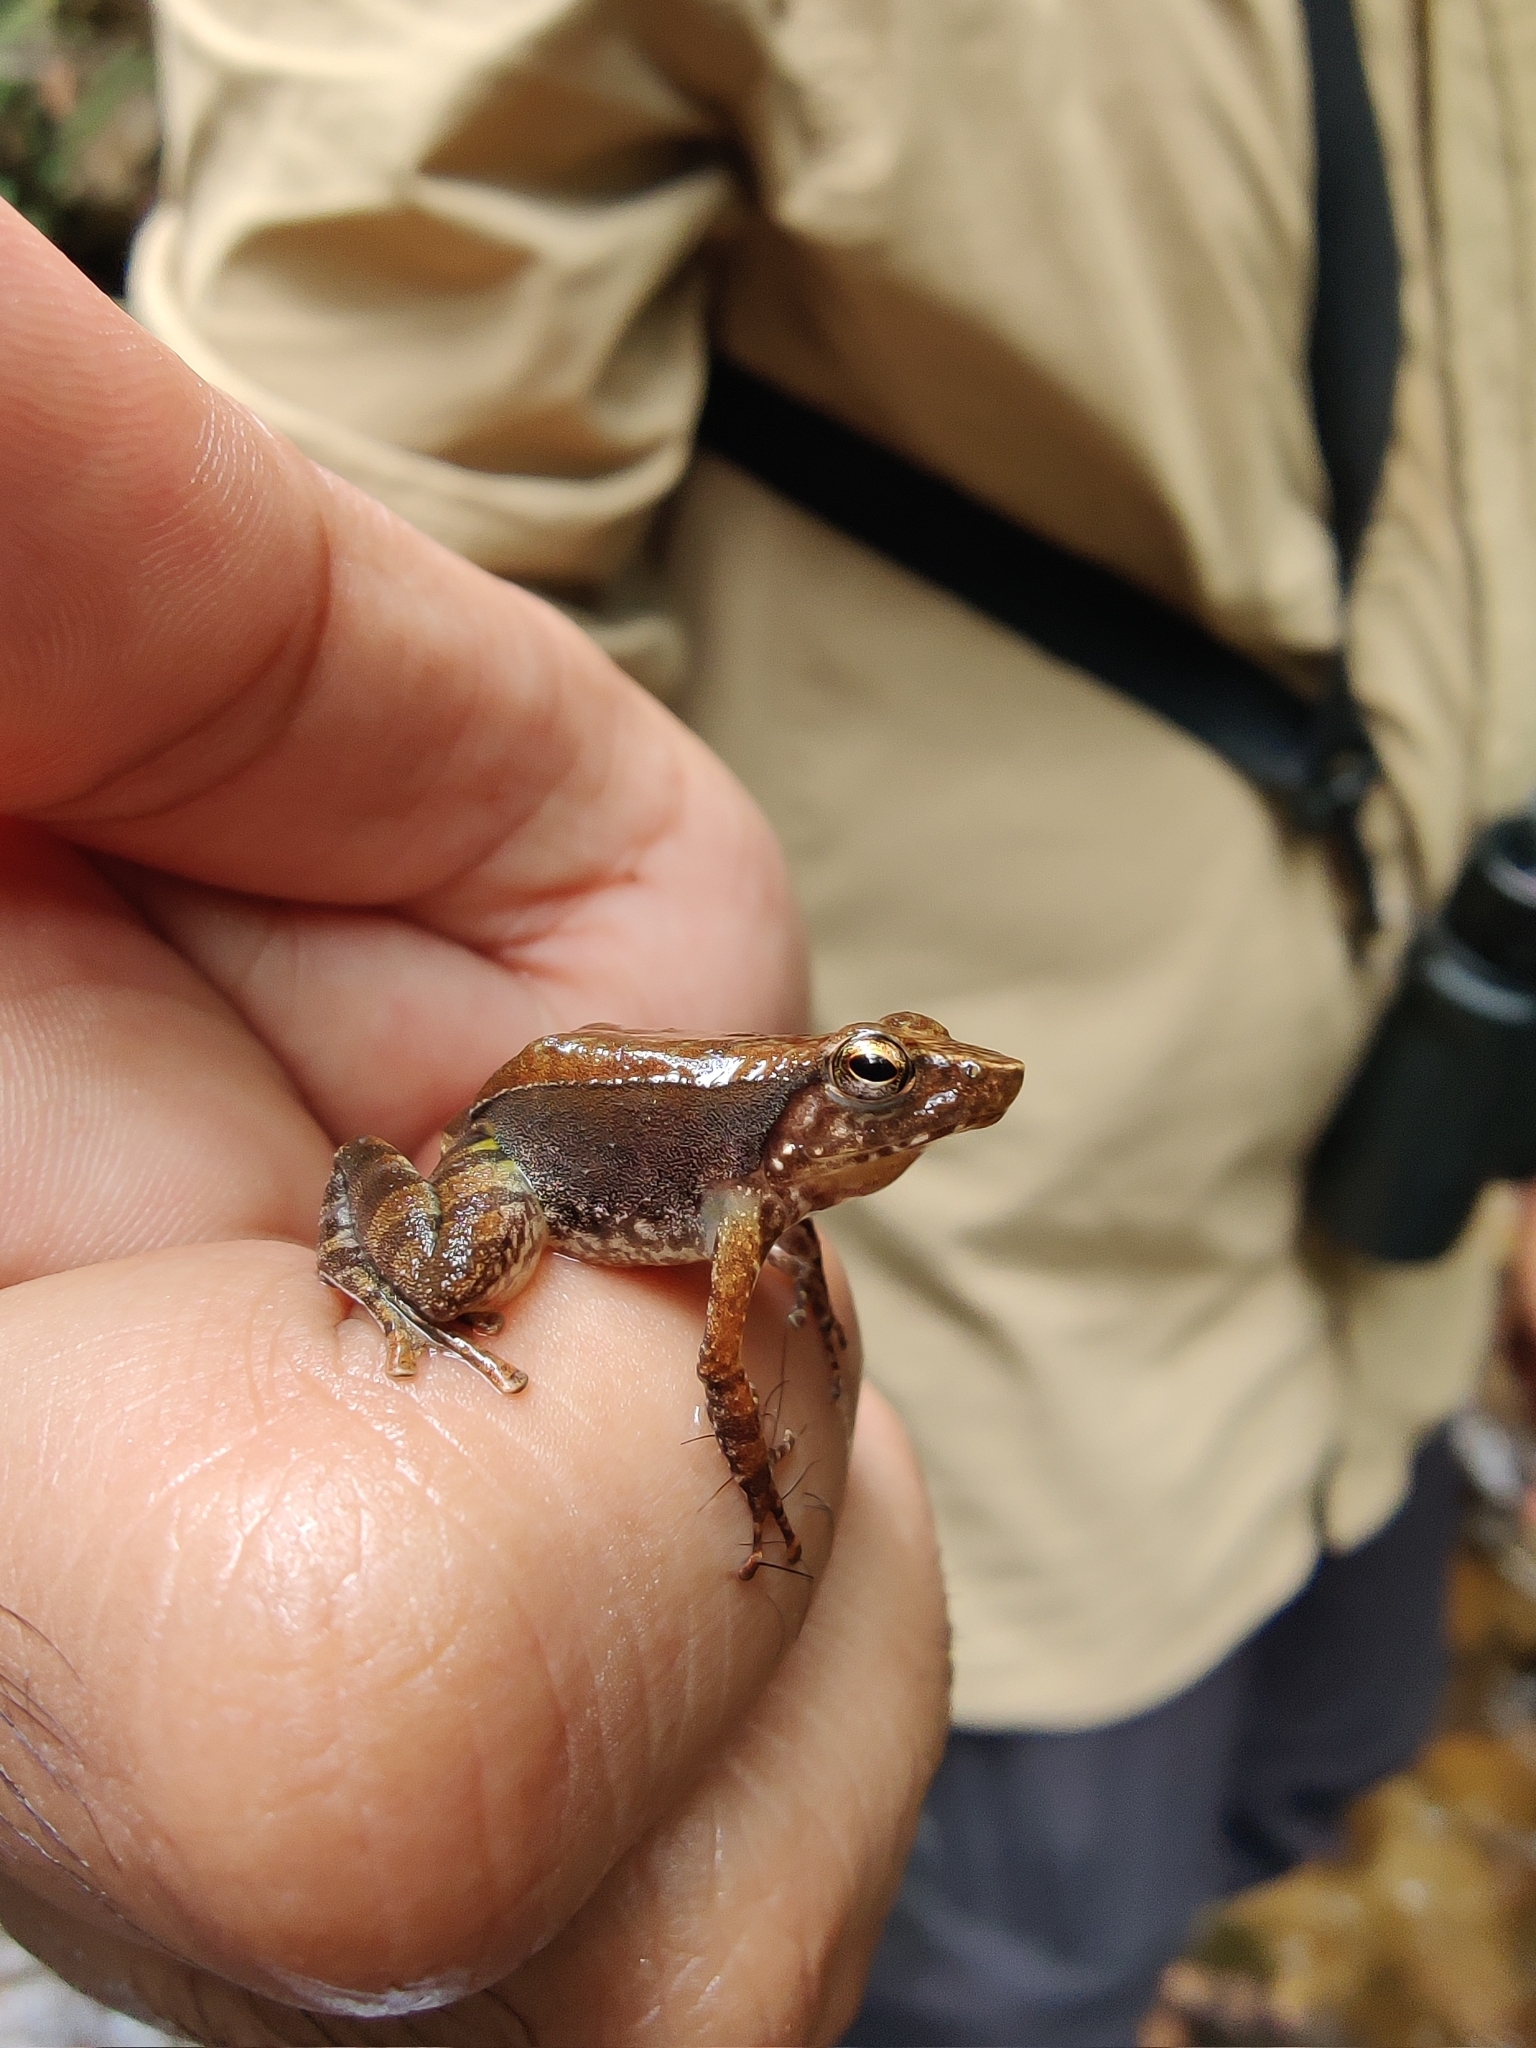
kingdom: Animalia
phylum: Chordata
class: Amphibia
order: Anura
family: Micrixalidae
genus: Micrixalus
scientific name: Micrixalus mallani
